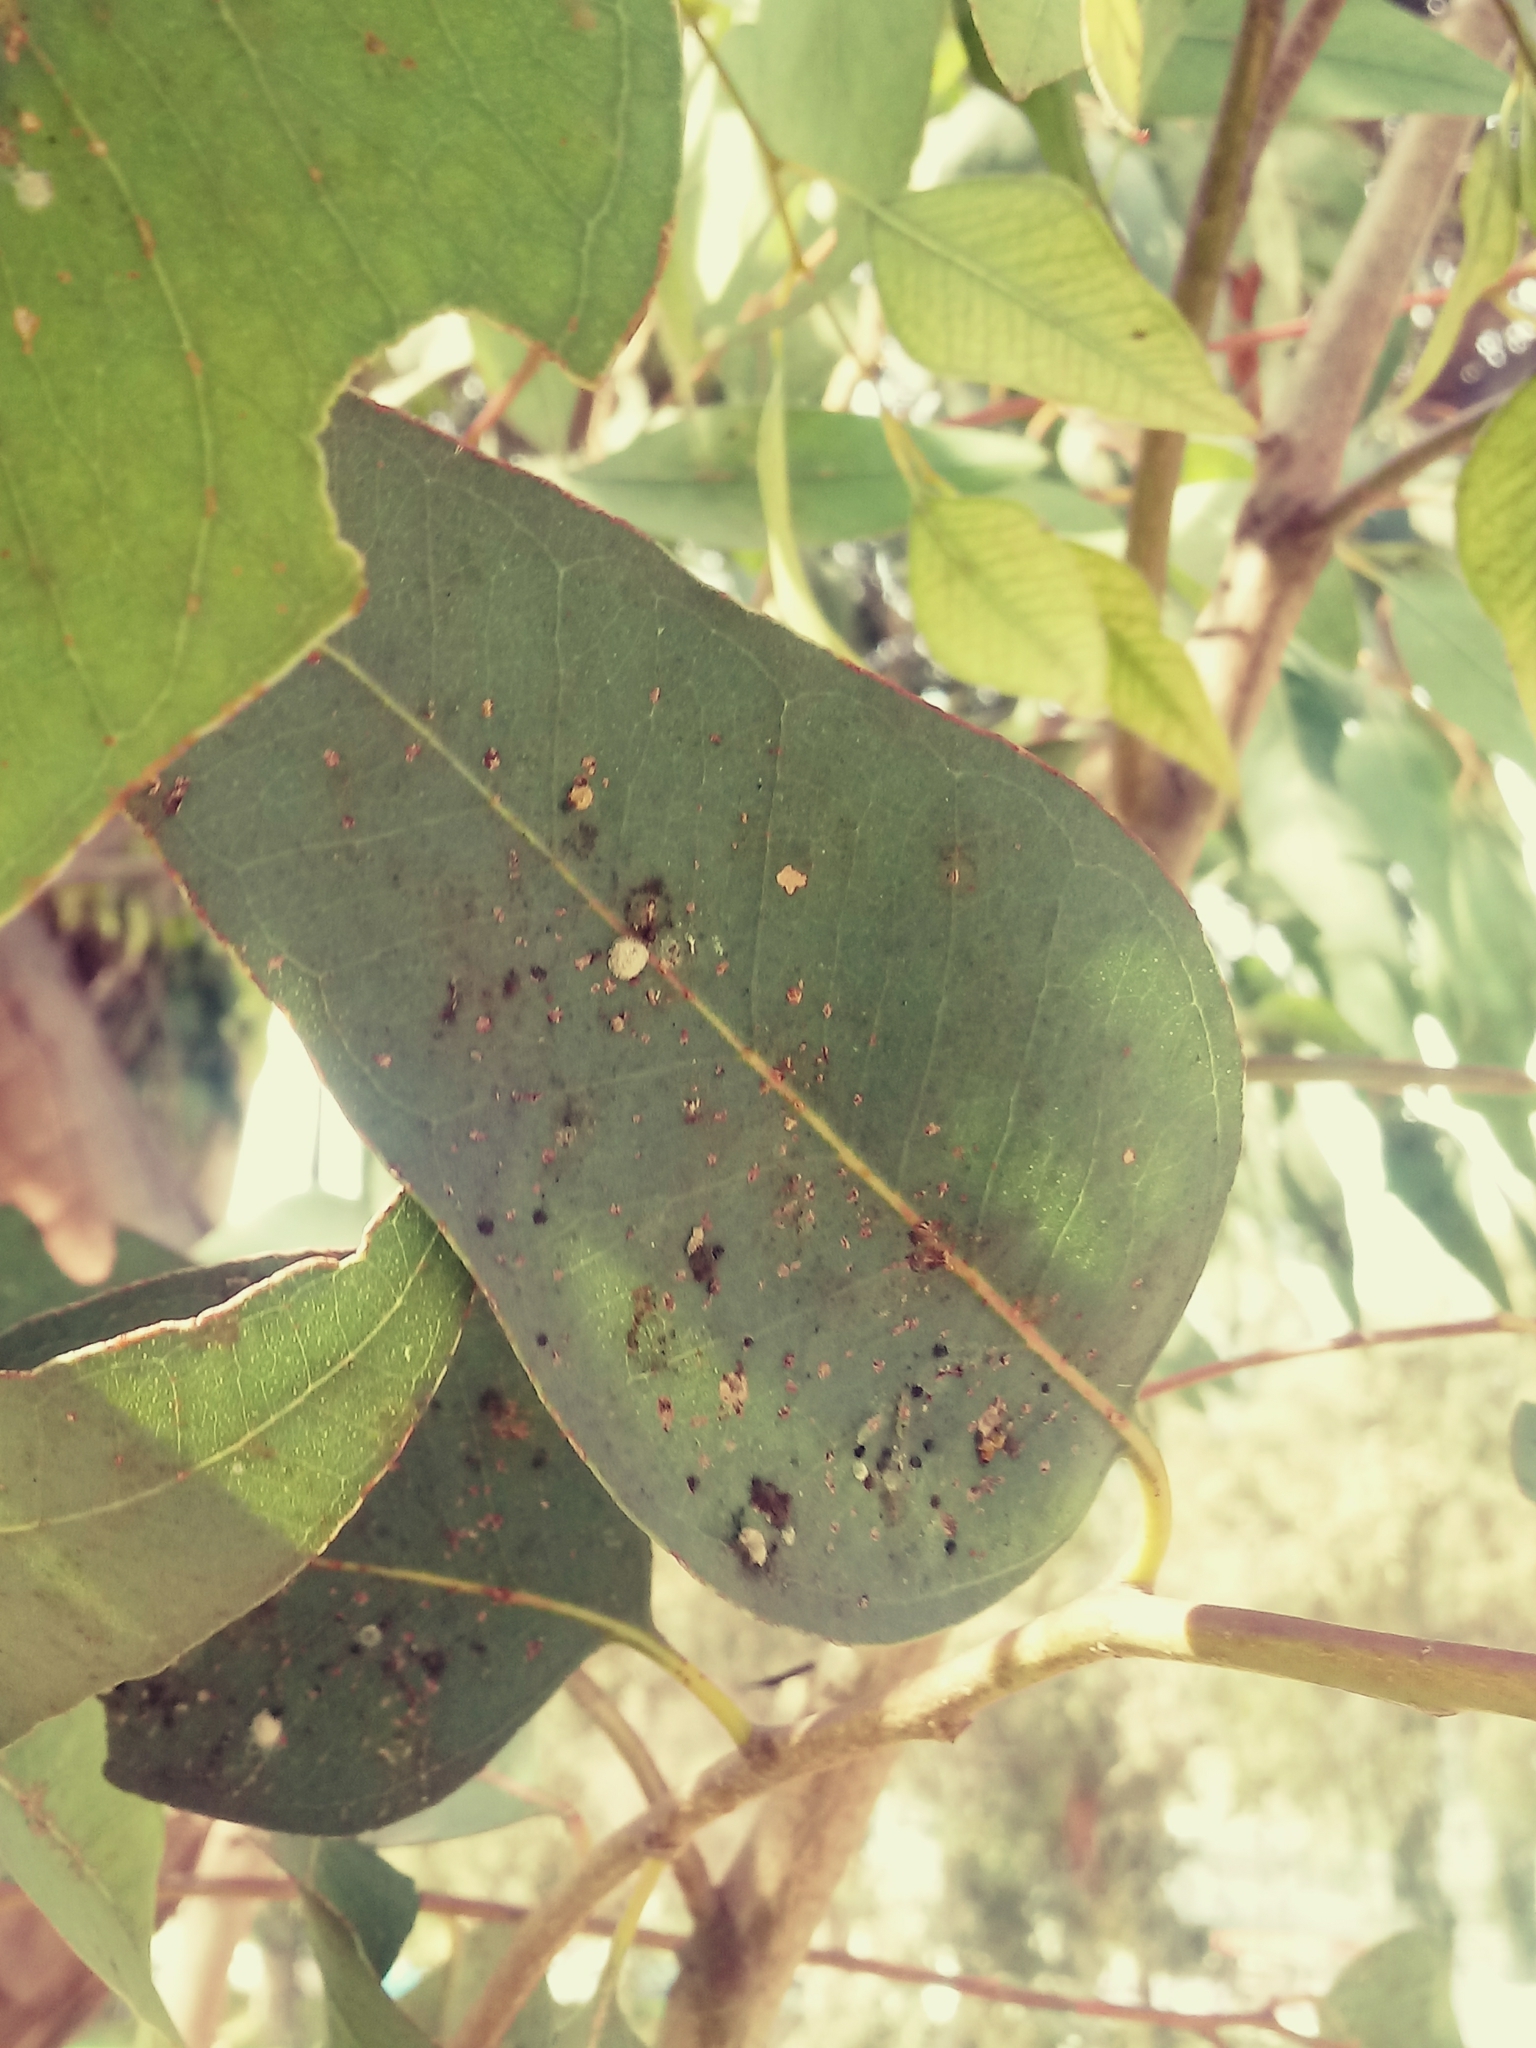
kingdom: Animalia
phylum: Arthropoda
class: Insecta
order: Hemiptera
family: Aphalaridae
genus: Glycaspis
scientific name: Glycaspis brimblecombei
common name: Red gum lerp psyllid
